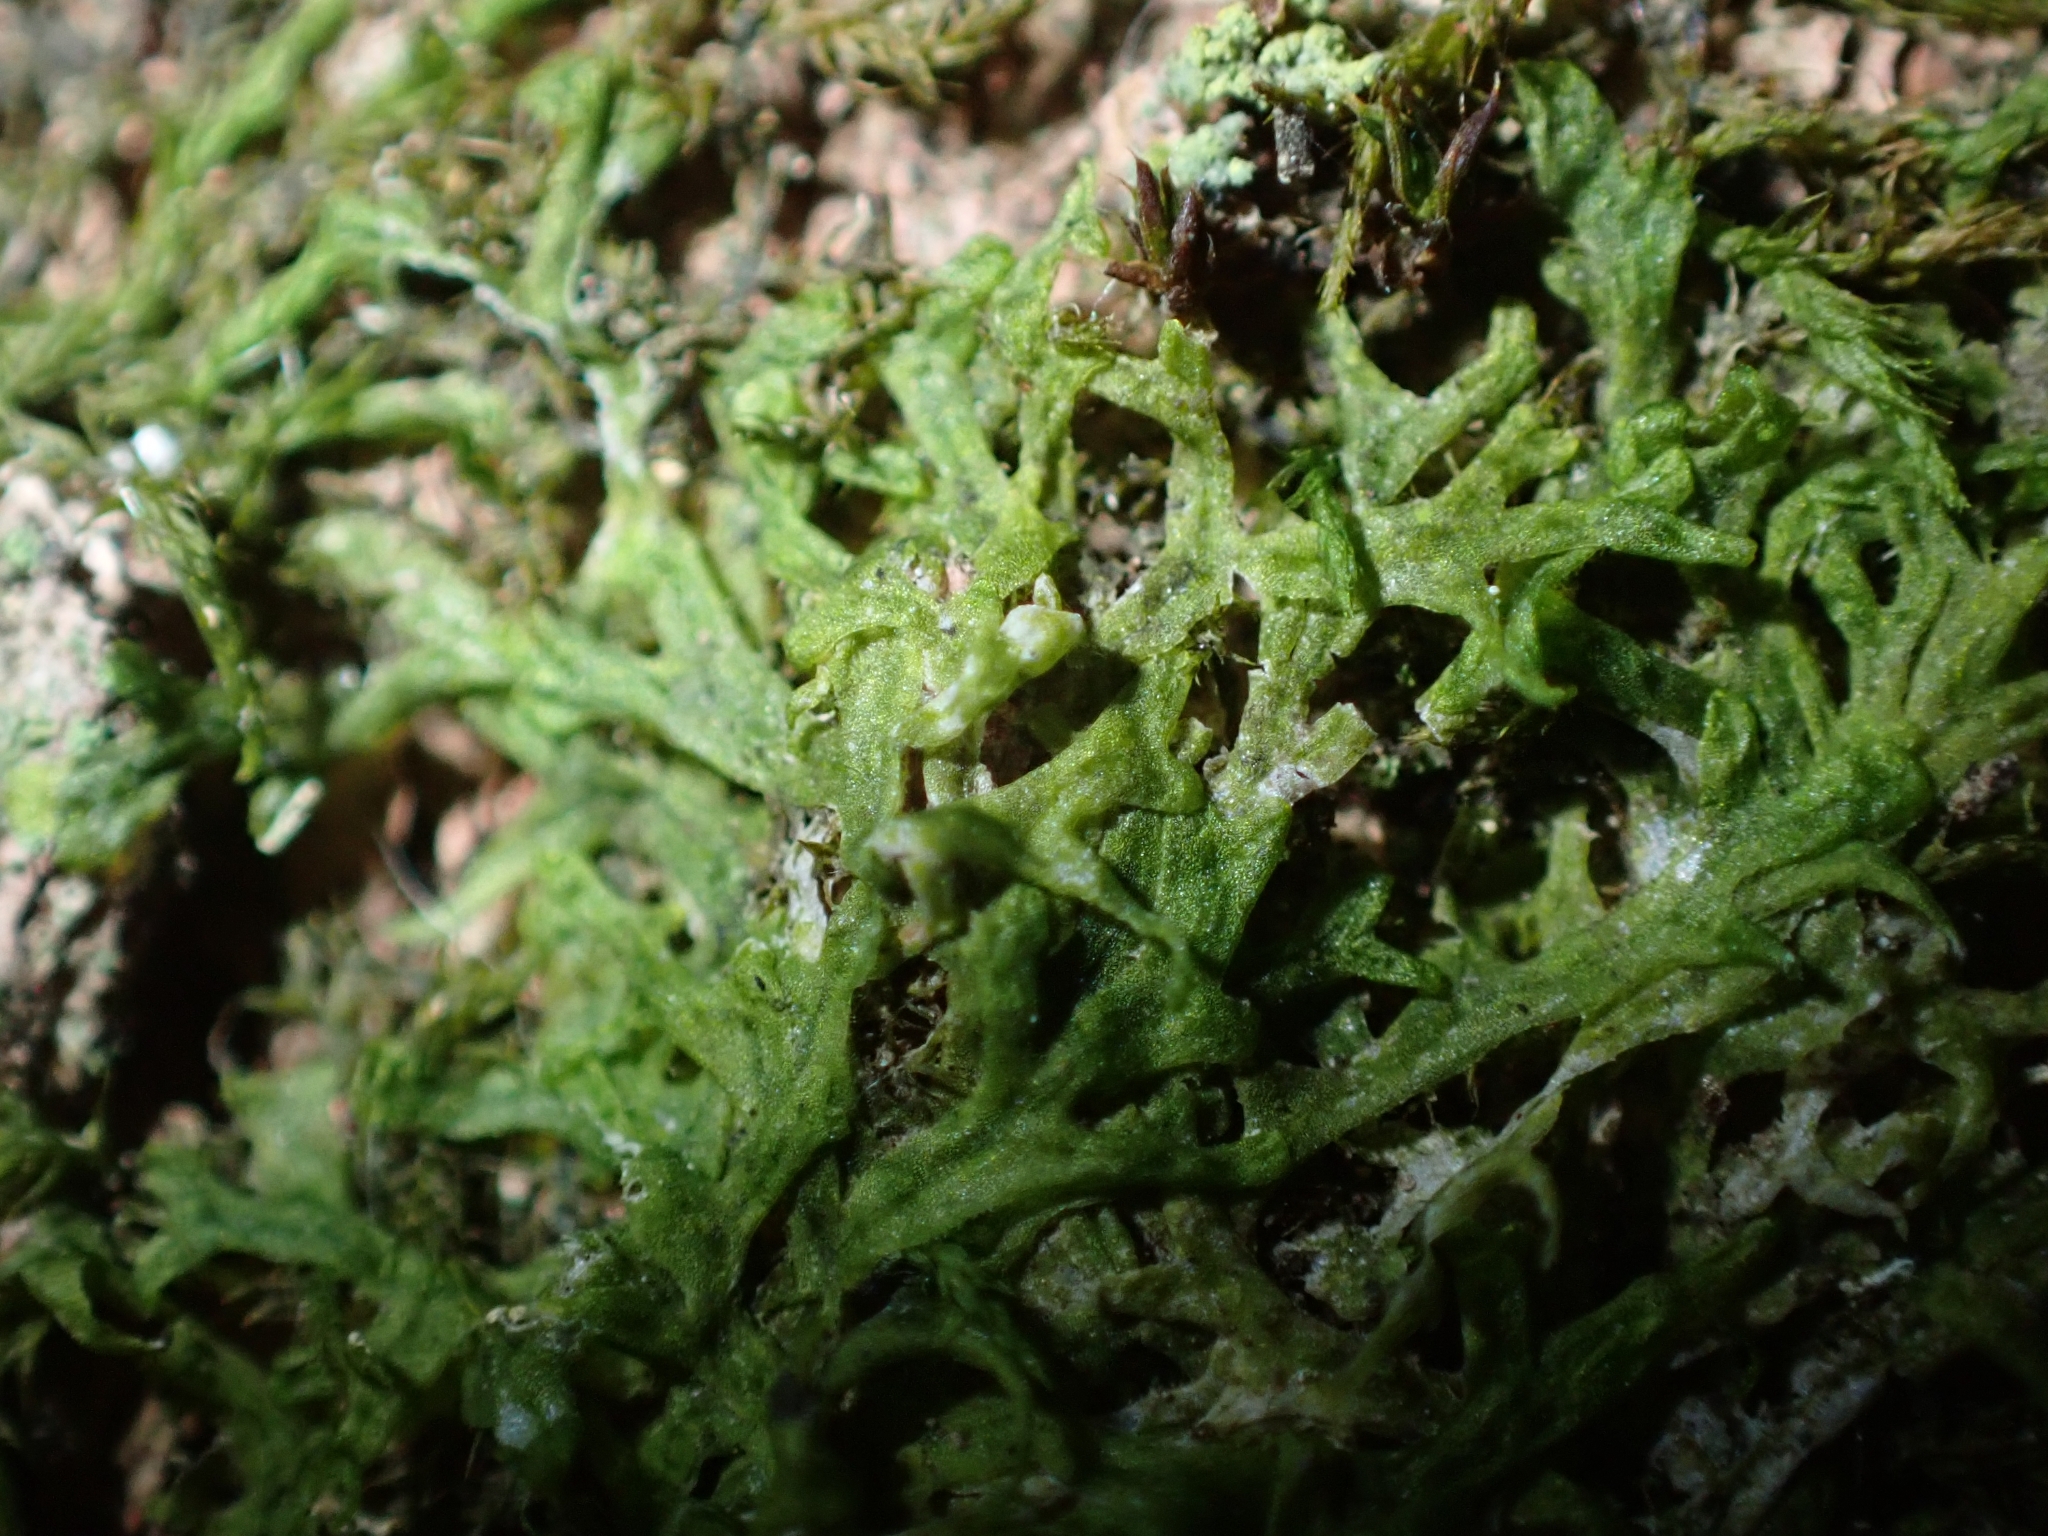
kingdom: Plantae
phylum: Marchantiophyta
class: Jungermanniopsida
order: Metzgeriales
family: Metzgeriaceae
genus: Metzgeria
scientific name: Metzgeria furcata
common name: Forked veilwort
